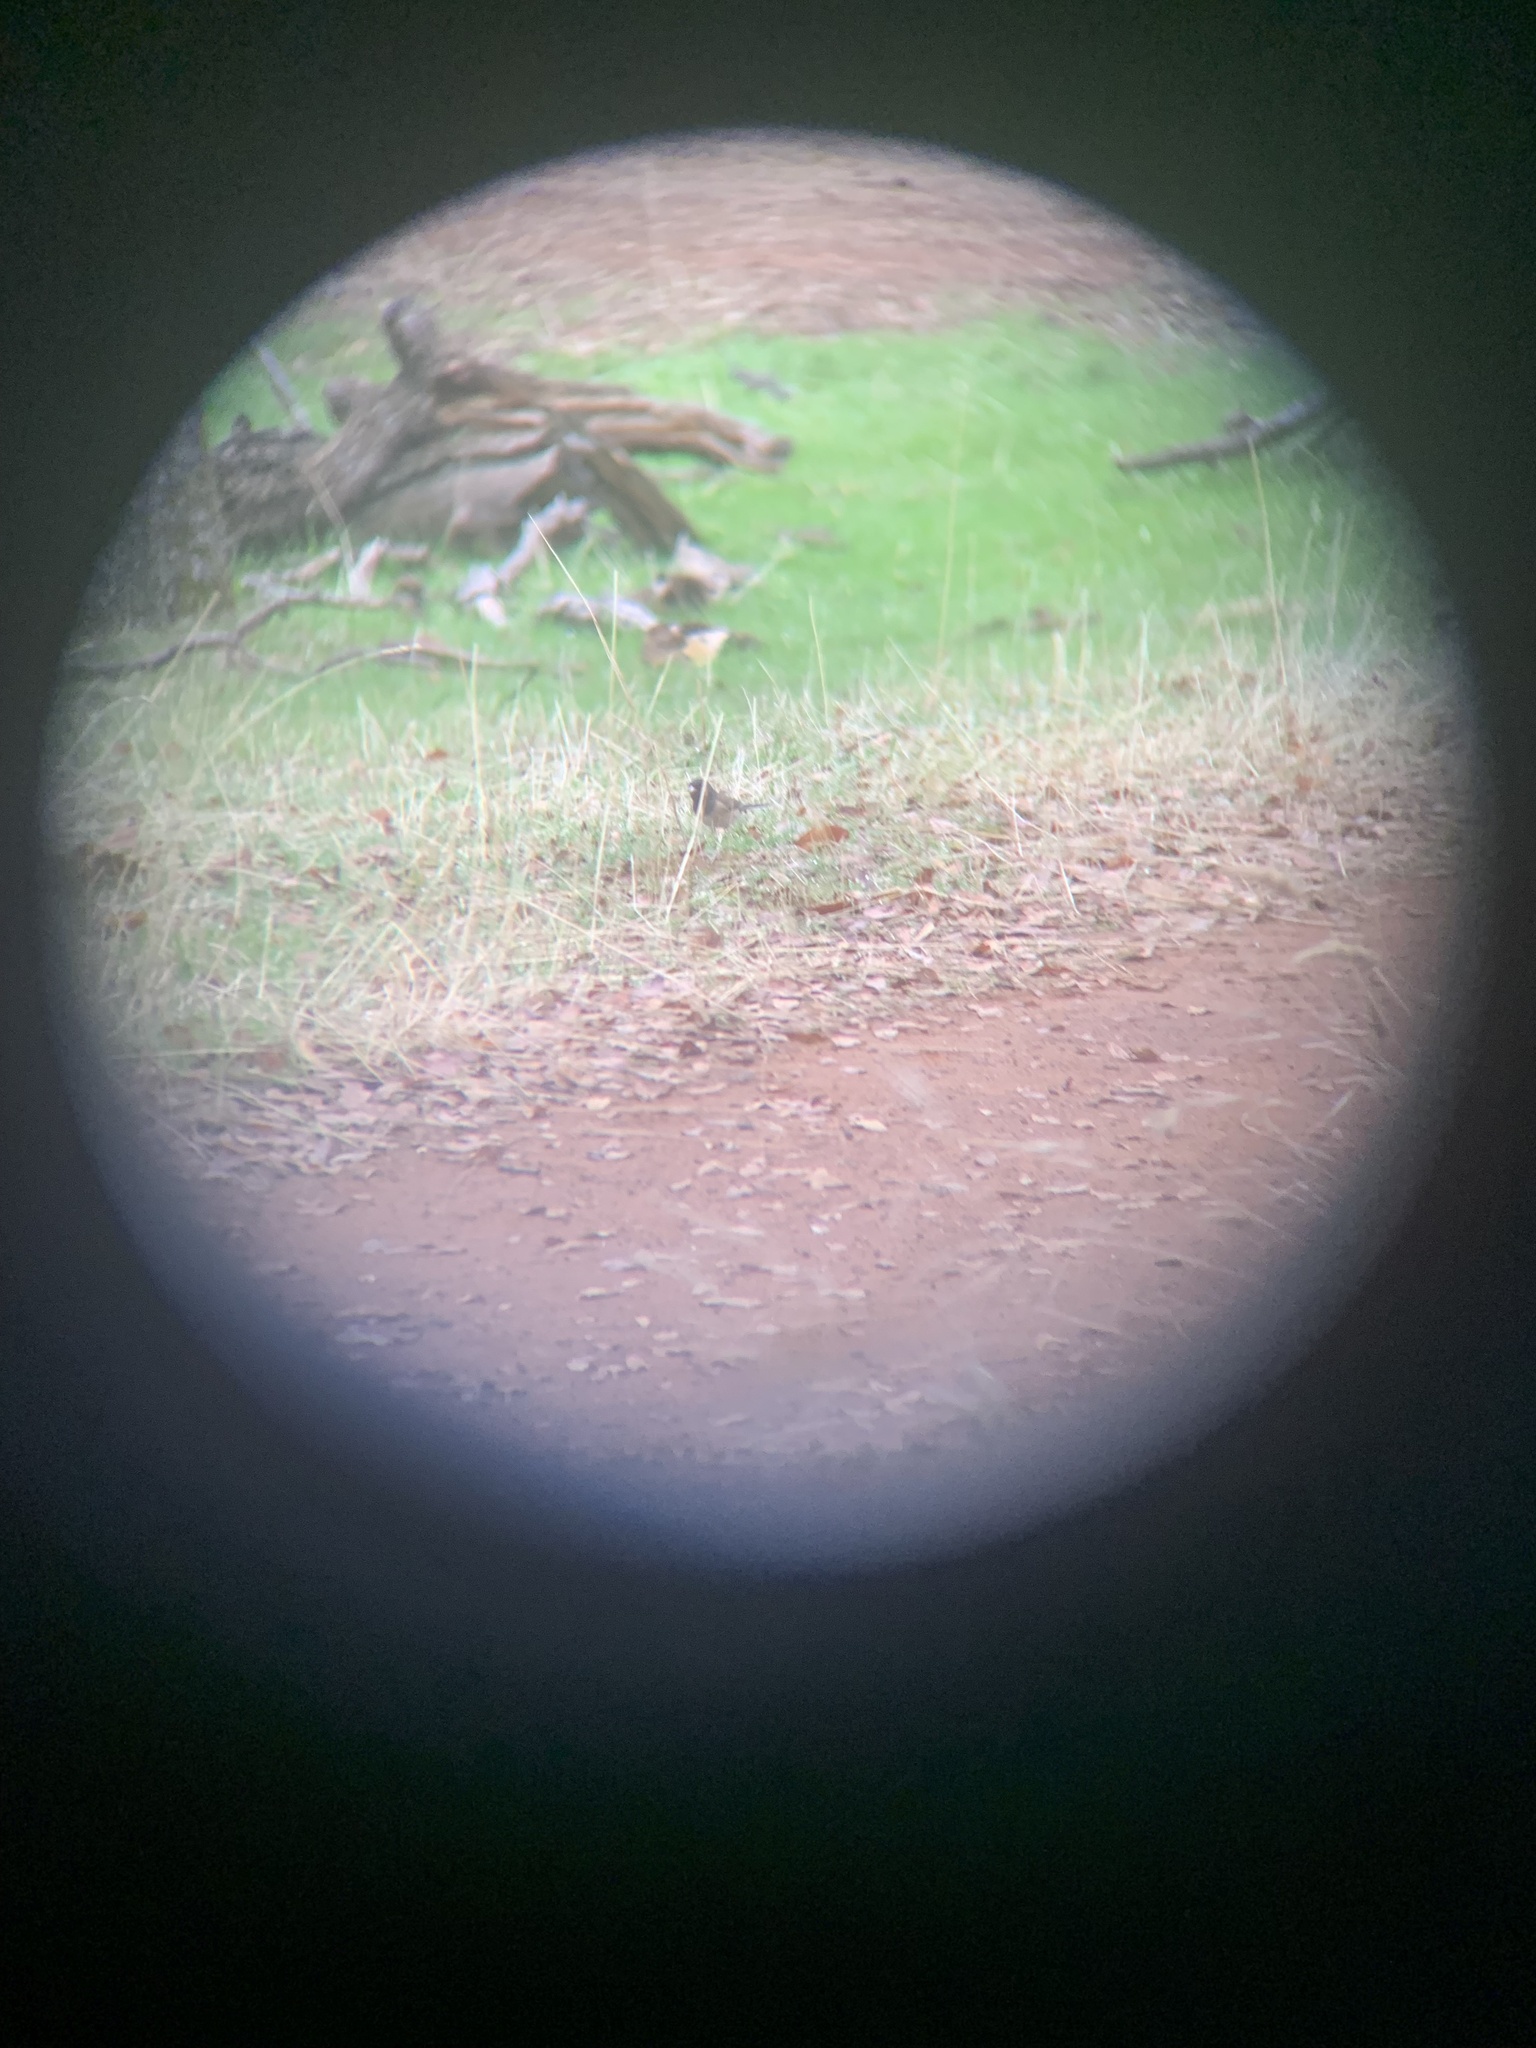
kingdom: Animalia
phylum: Chordata
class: Aves
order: Passeriformes
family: Passerellidae
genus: Junco
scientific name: Junco hyemalis
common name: Dark-eyed junco
